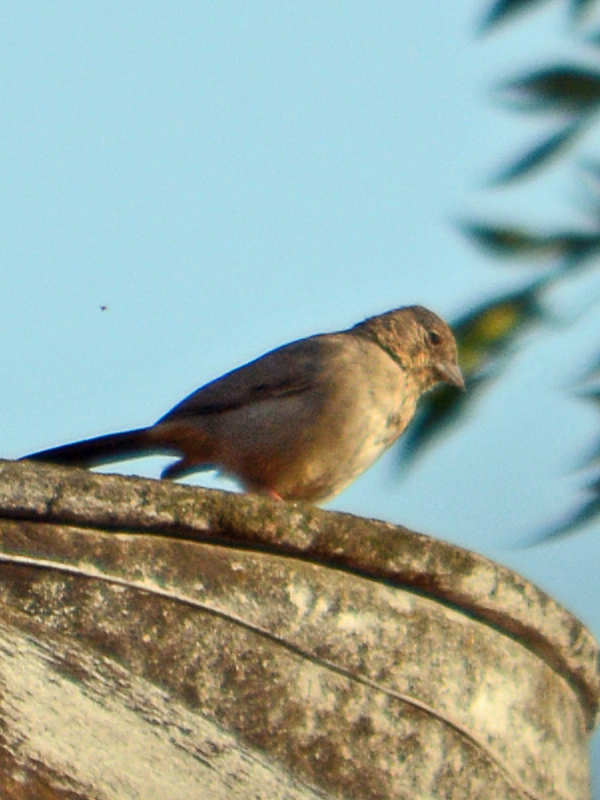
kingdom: Animalia
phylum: Chordata
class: Aves
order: Passeriformes
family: Passerellidae
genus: Melozone
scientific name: Melozone fusca
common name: Canyon towhee
